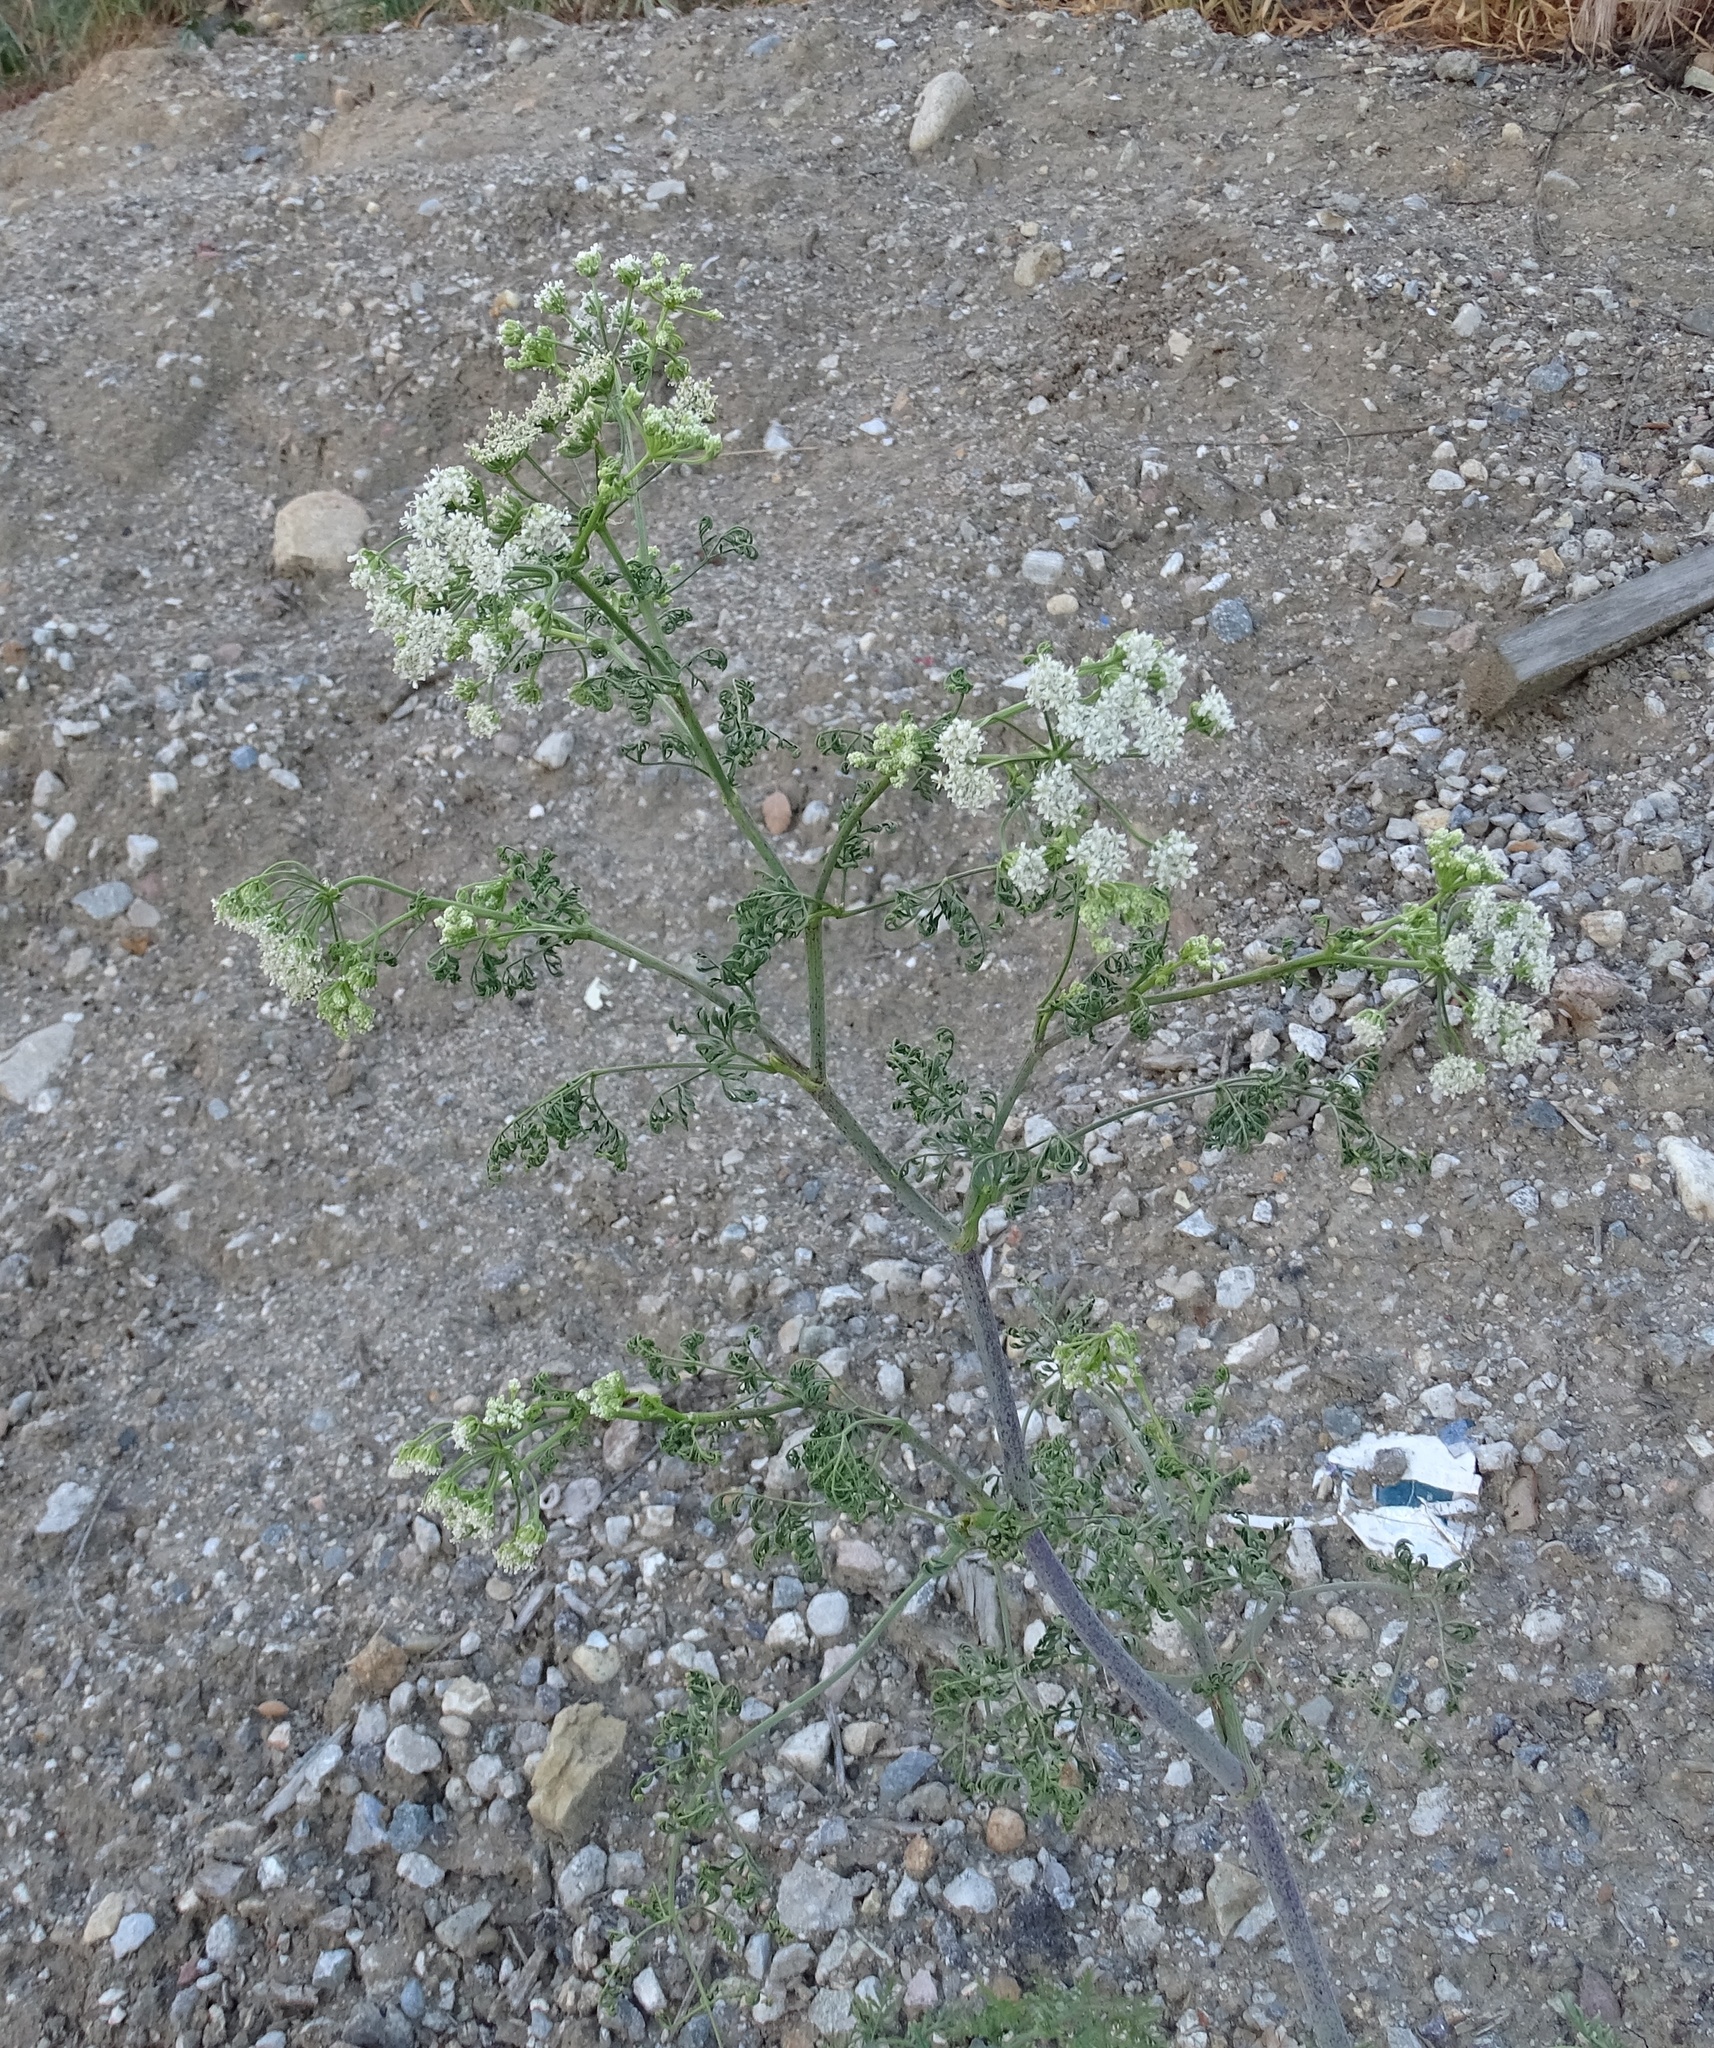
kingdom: Plantae
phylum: Tracheophyta
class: Magnoliopsida
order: Apiales
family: Apiaceae
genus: Conium
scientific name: Conium maculatum
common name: Hemlock
